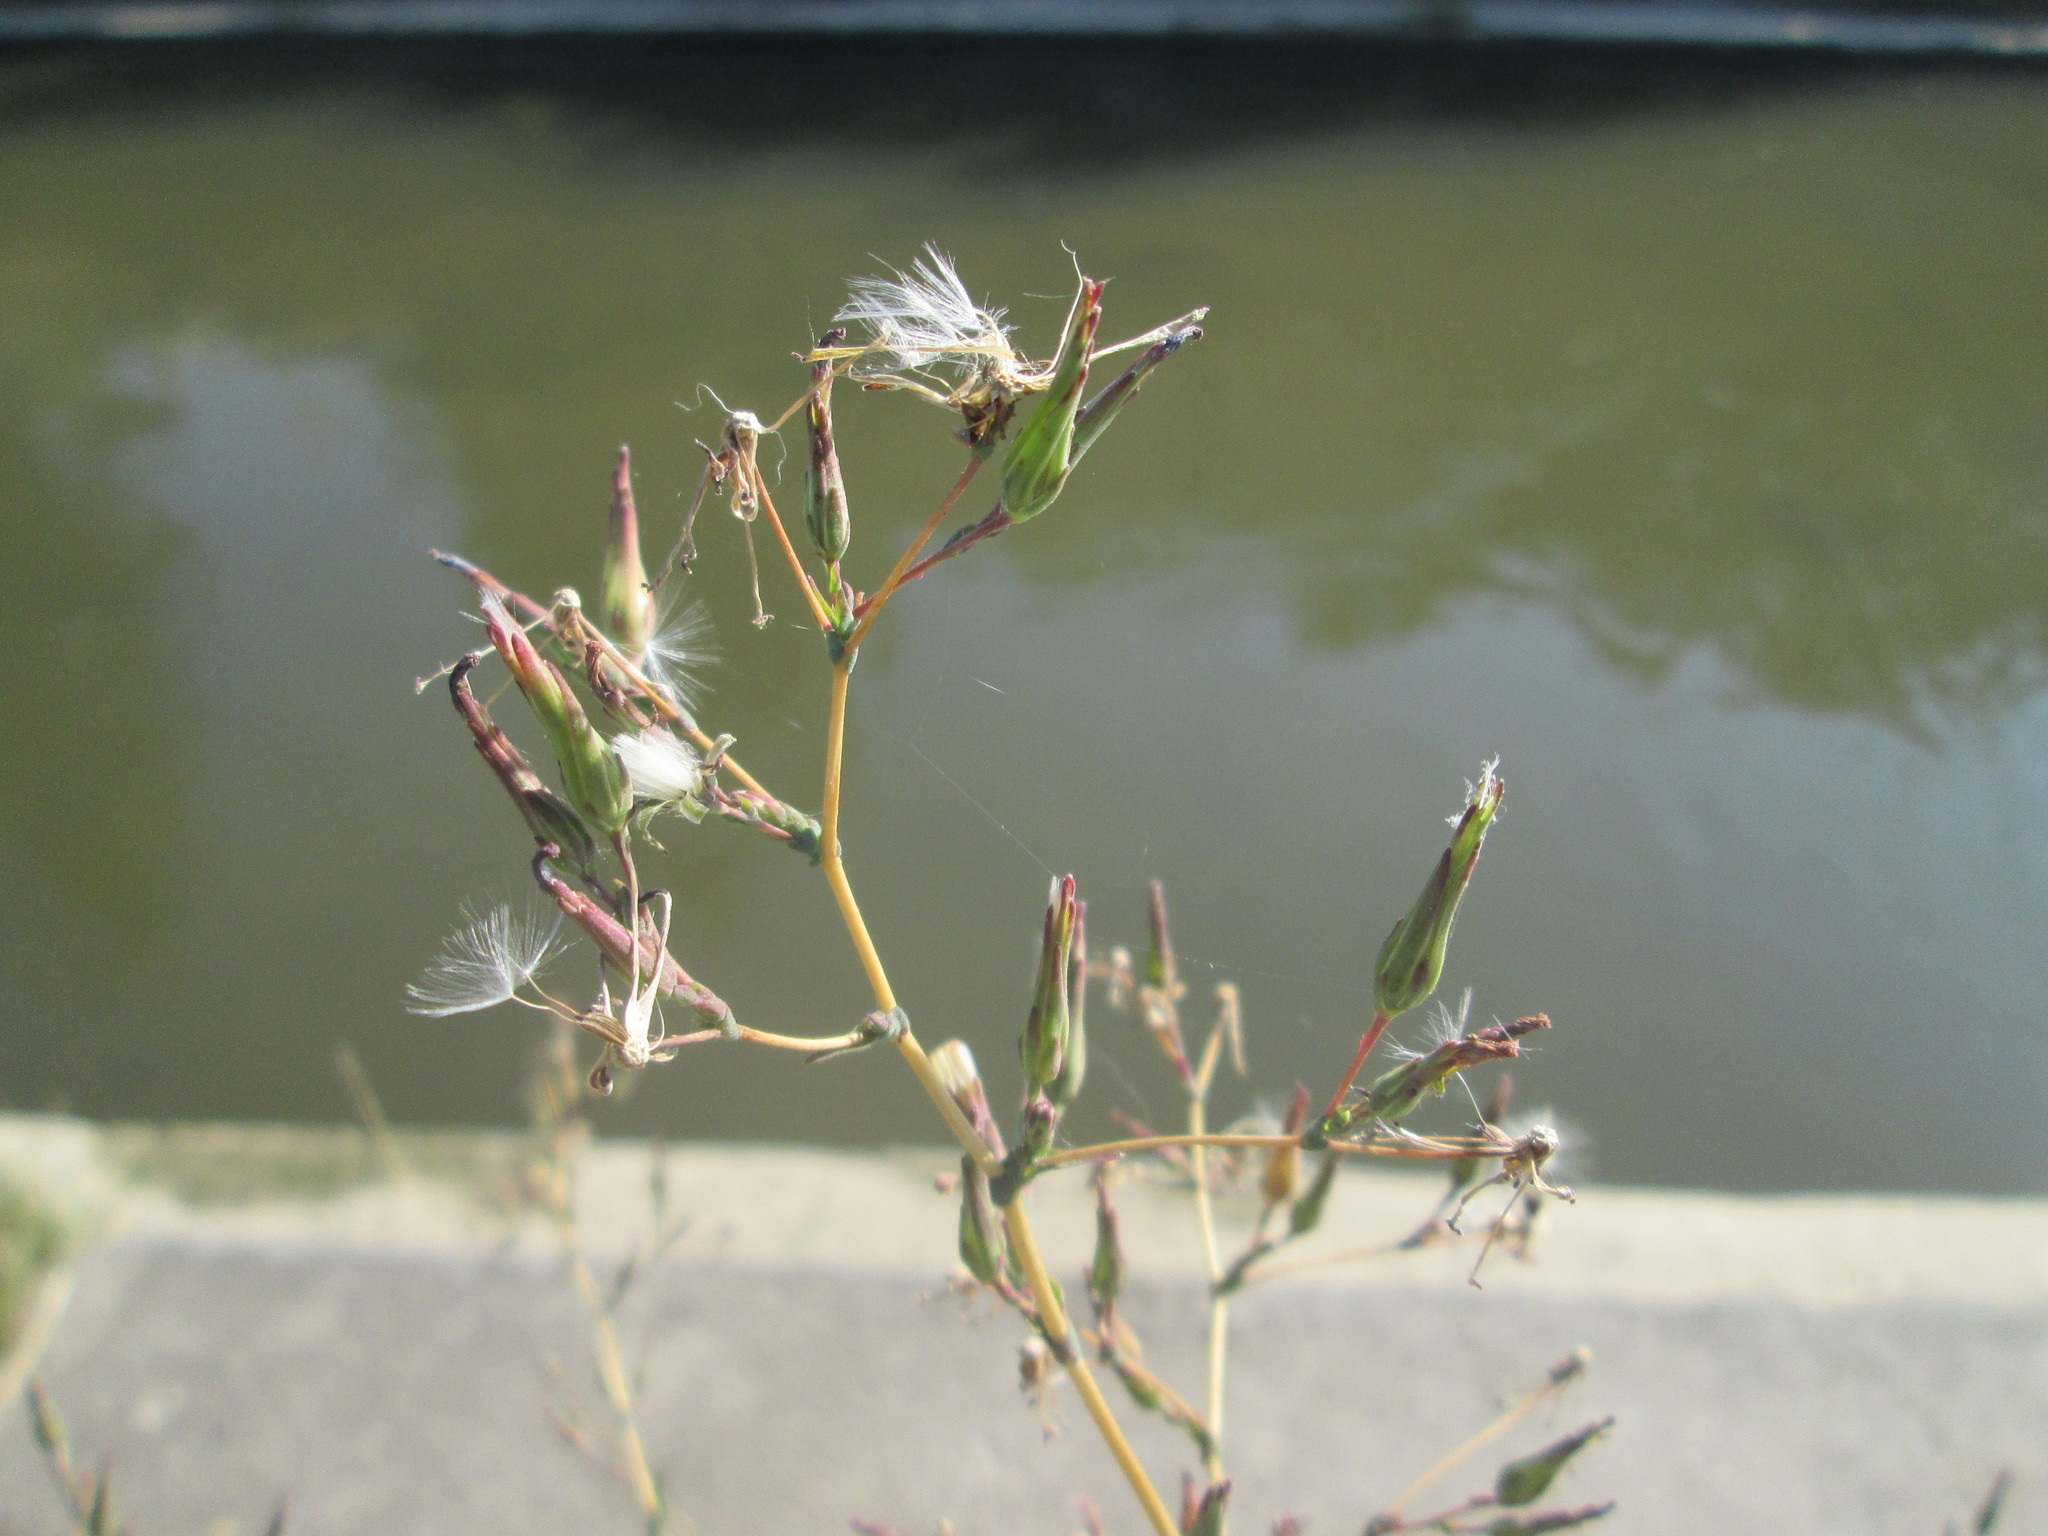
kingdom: Plantae
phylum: Tracheophyta
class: Magnoliopsida
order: Asterales
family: Asteraceae
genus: Lactuca
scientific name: Lactuca serriola
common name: Prickly lettuce
